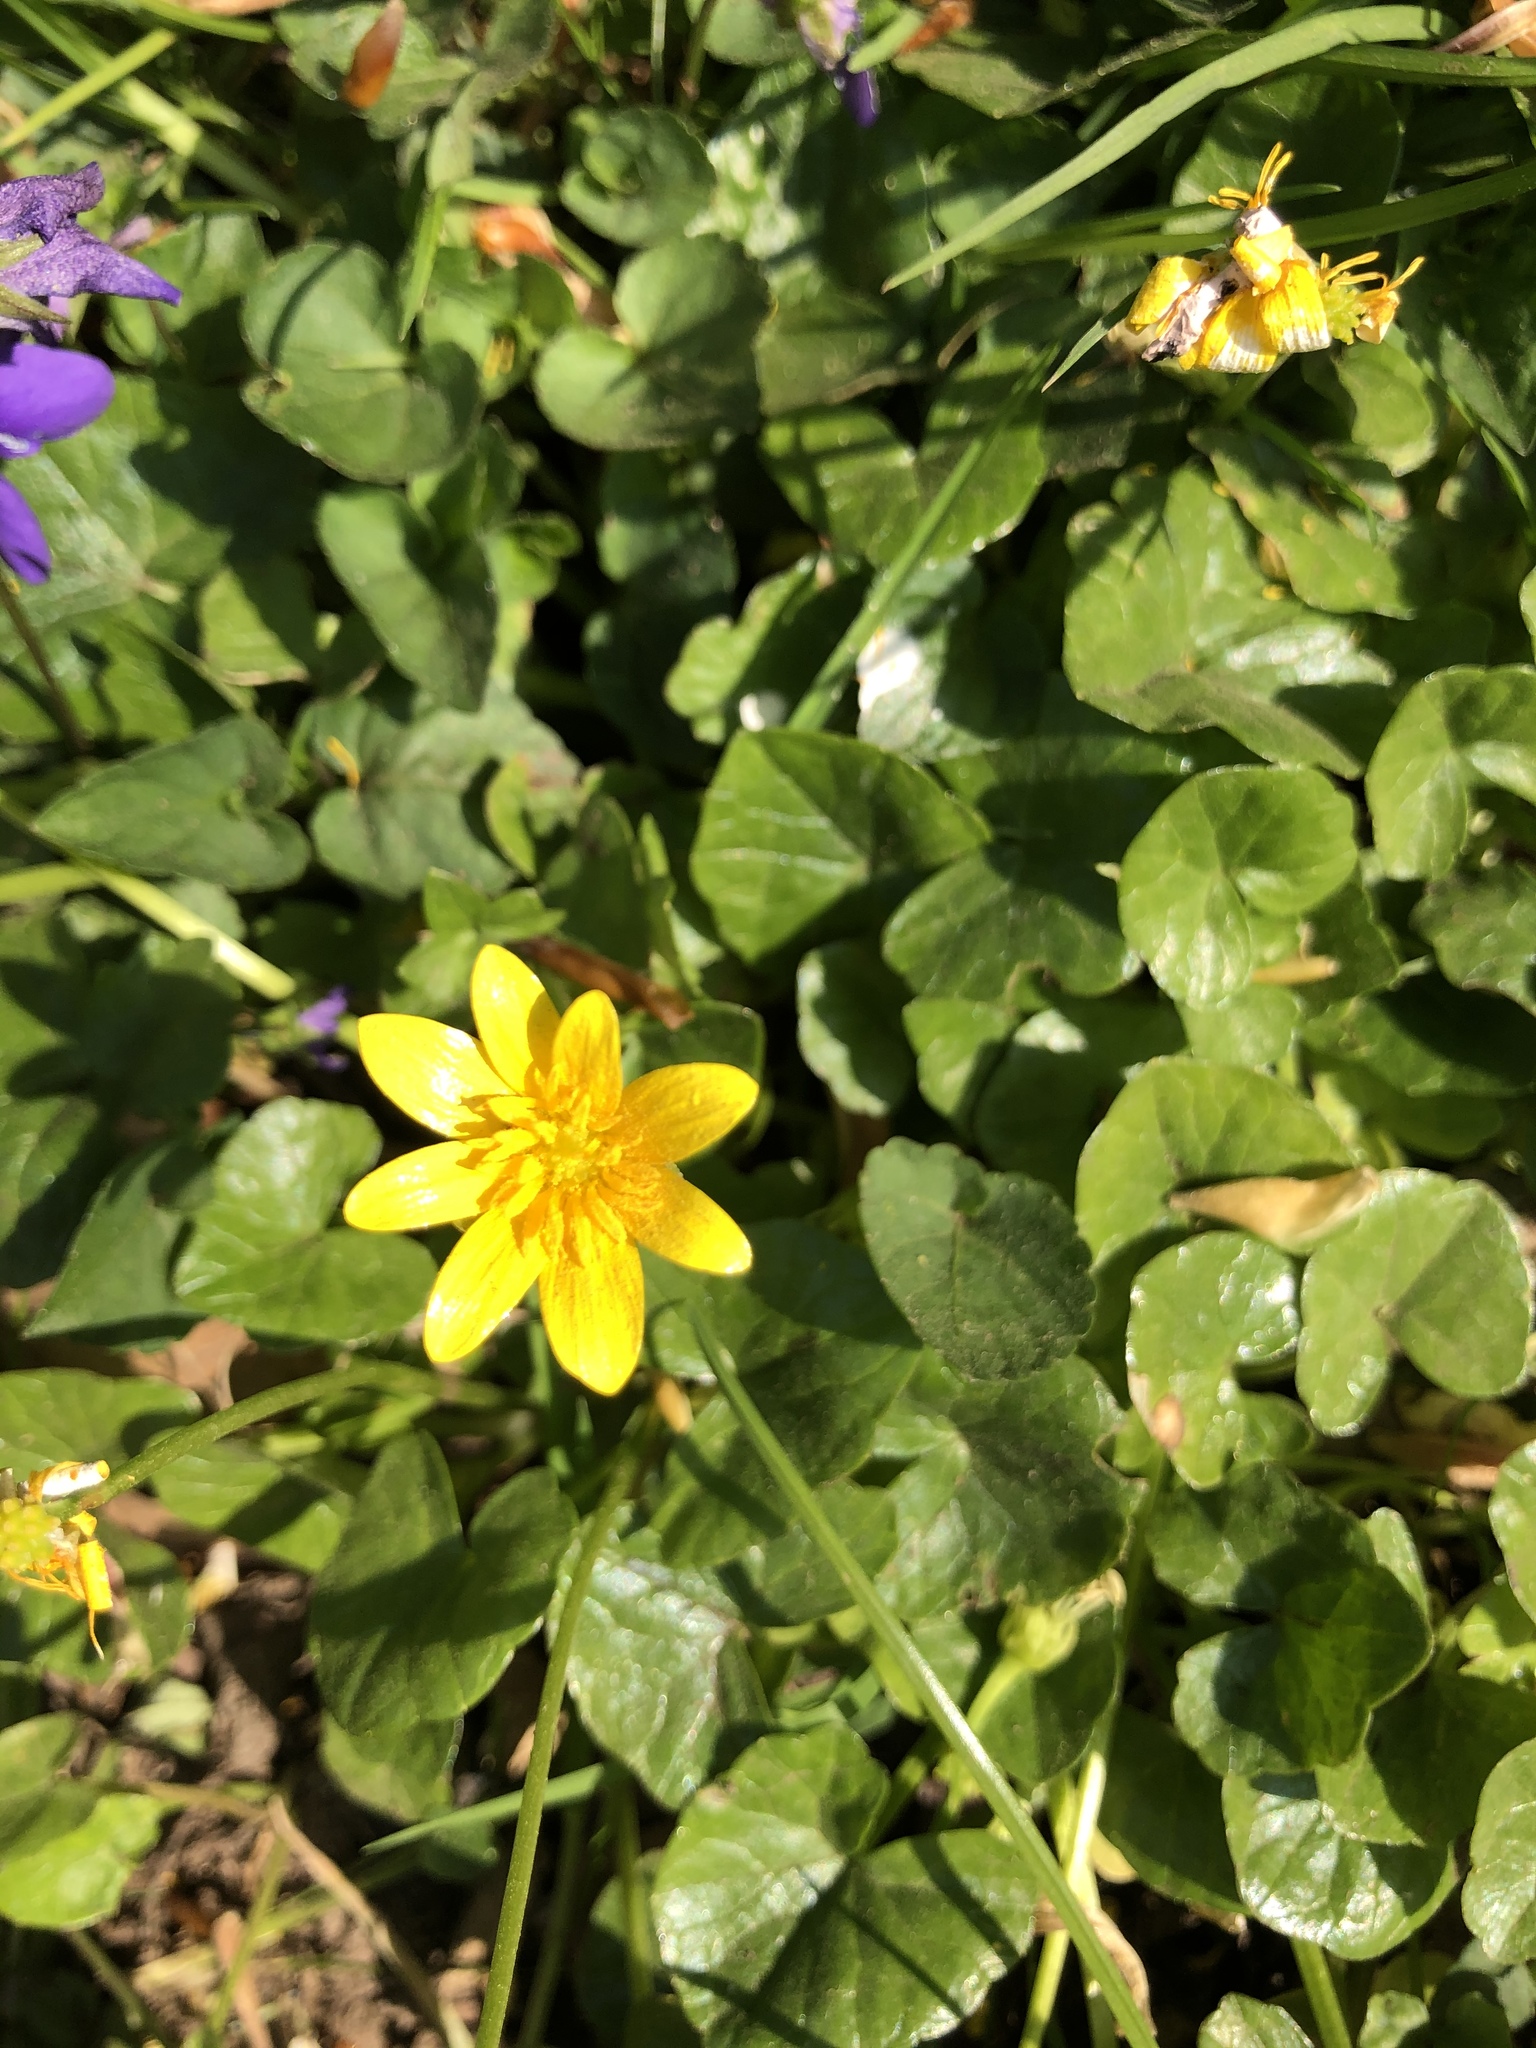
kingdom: Plantae
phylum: Tracheophyta
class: Magnoliopsida
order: Ranunculales
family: Ranunculaceae
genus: Ficaria
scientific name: Ficaria verna
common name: Lesser celandine
